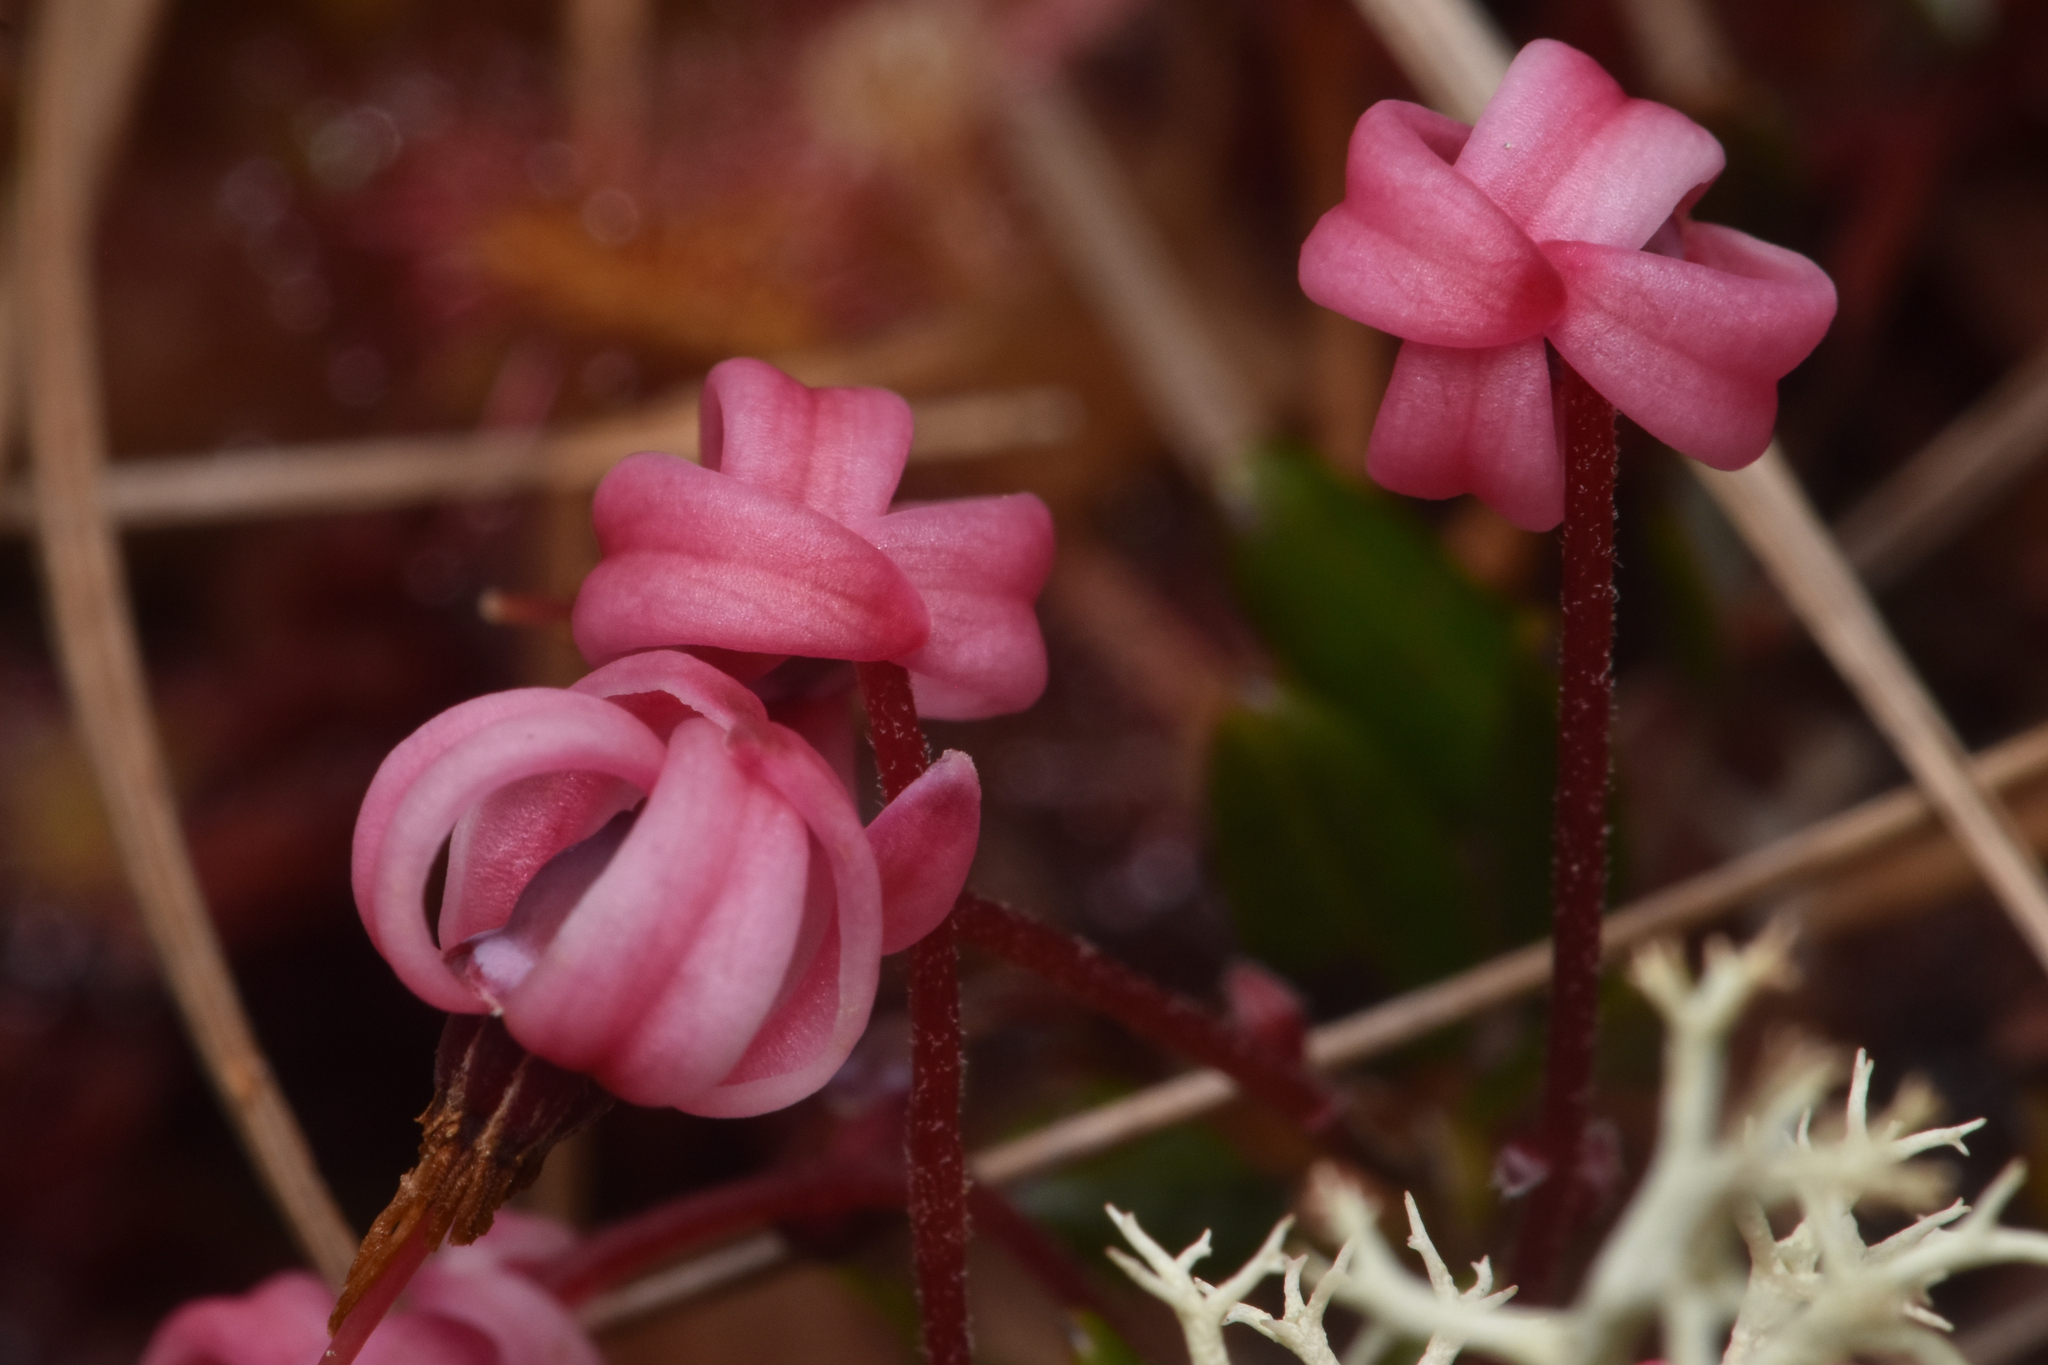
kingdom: Plantae
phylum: Tracheophyta
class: Magnoliopsida
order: Ericales
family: Ericaceae
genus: Vaccinium
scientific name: Vaccinium oxycoccos
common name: Cranberry
